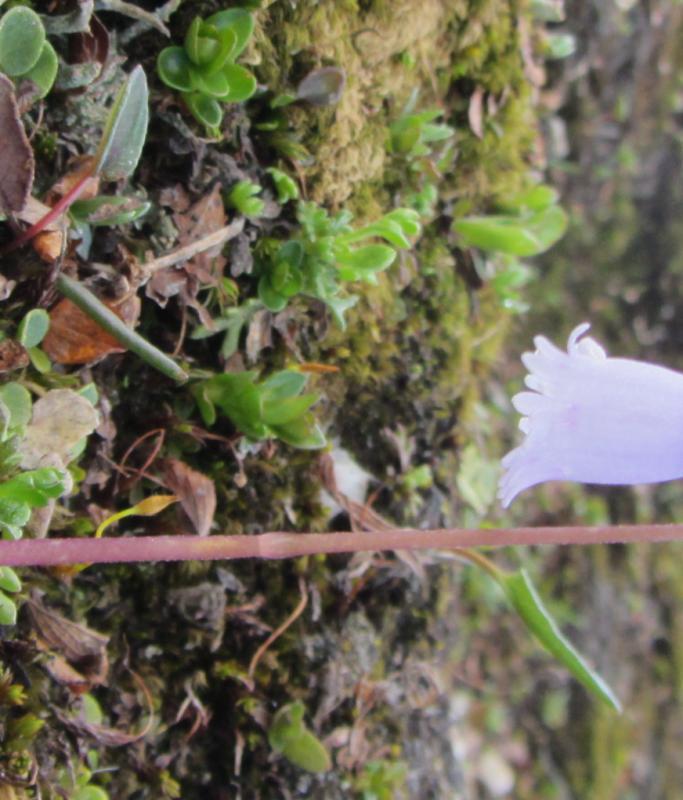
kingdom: Plantae
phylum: Tracheophyta
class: Magnoliopsida
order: Ericales
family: Primulaceae
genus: Soldanella
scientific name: Soldanella pusilla
